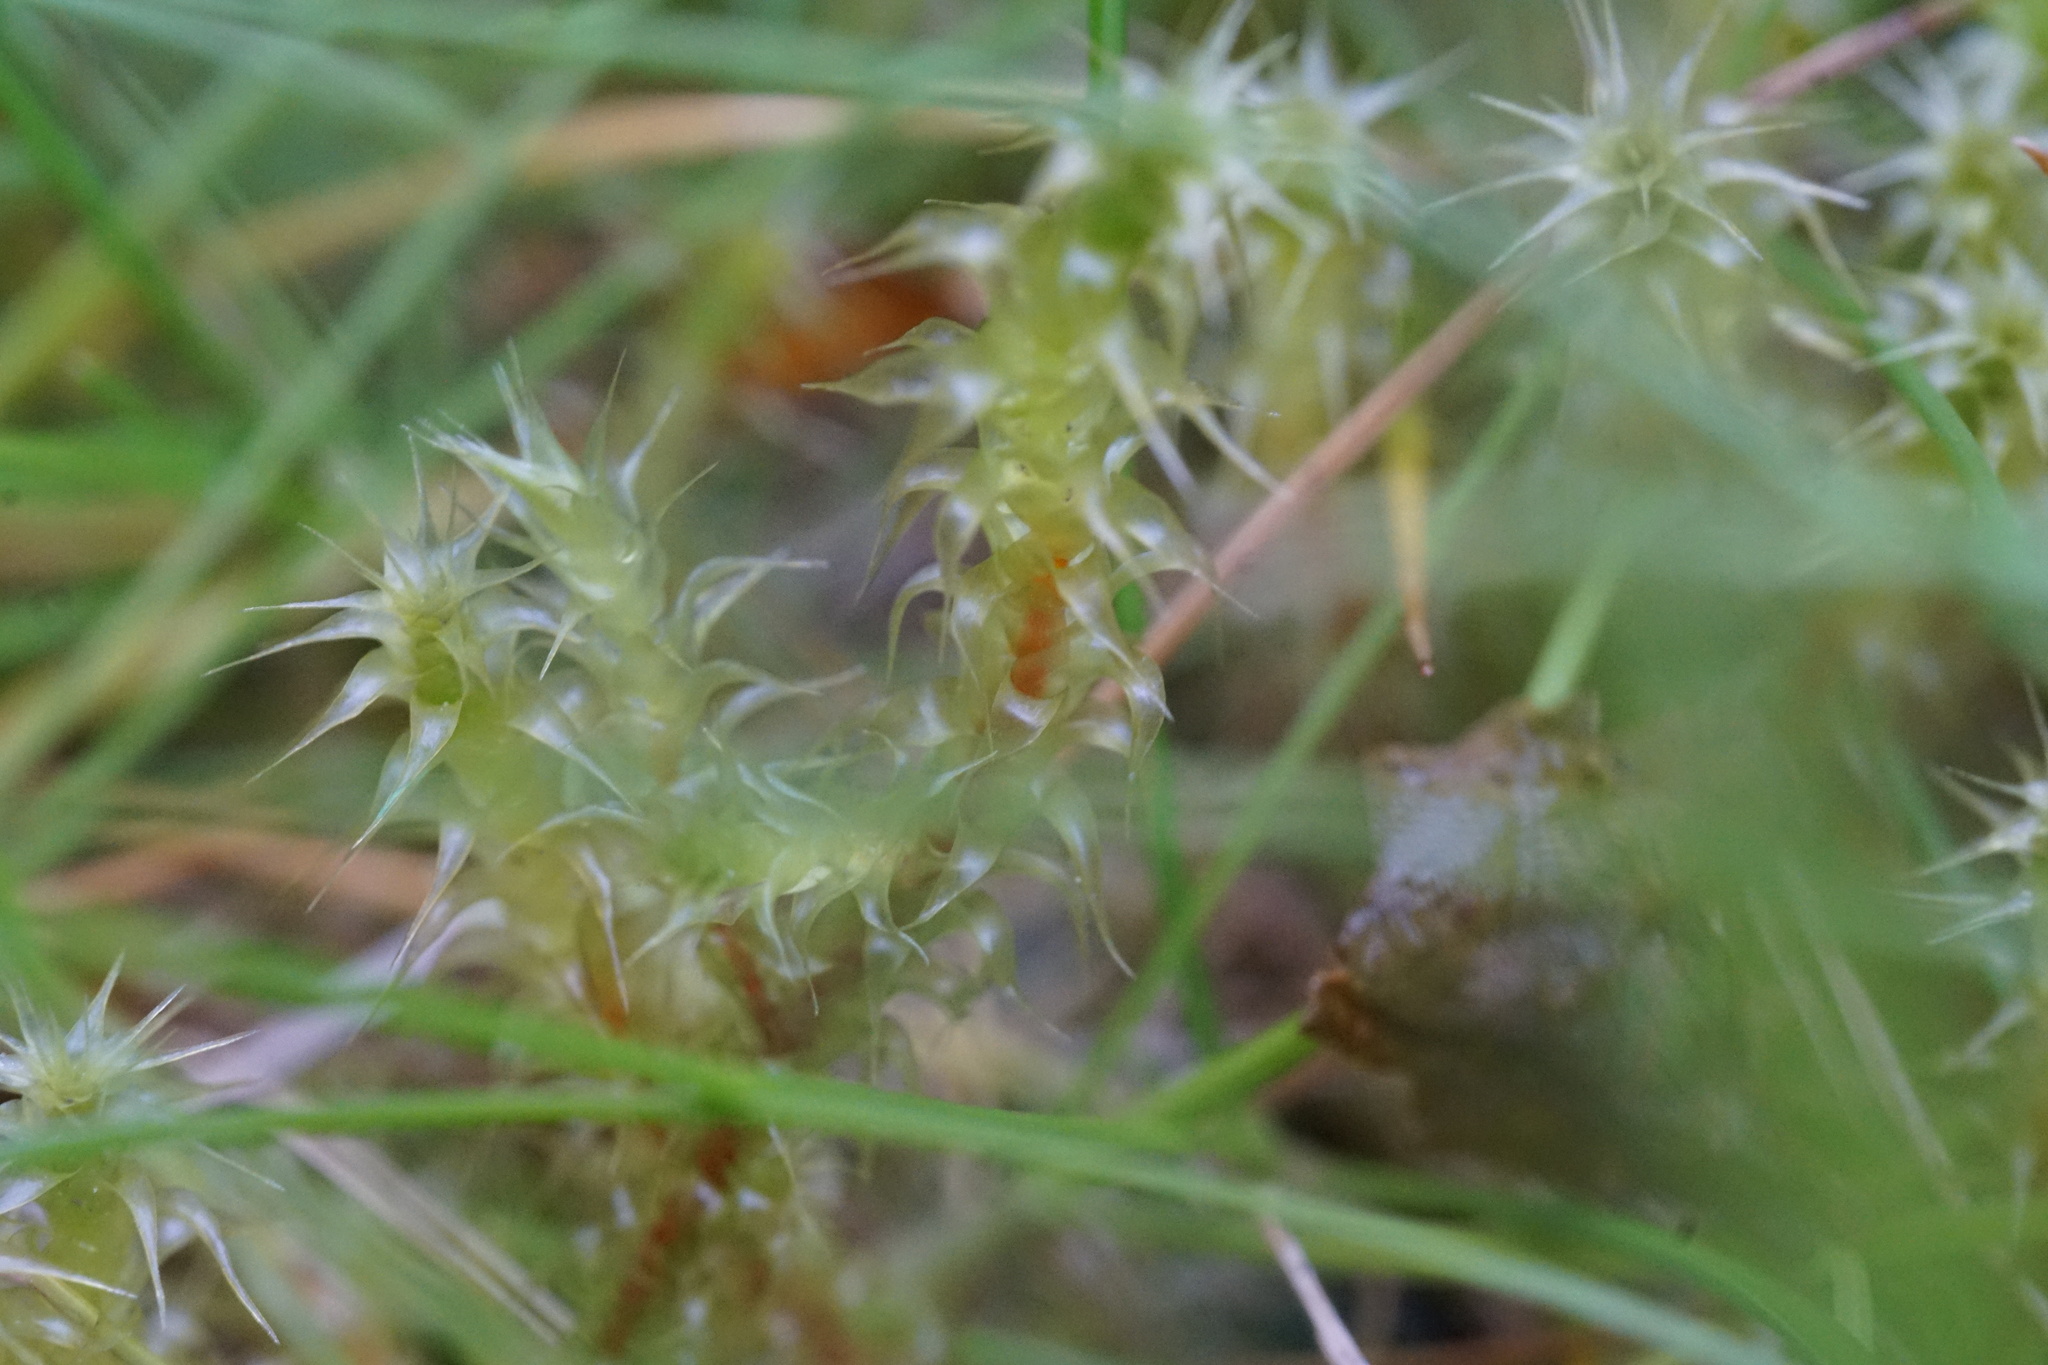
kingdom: Plantae
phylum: Bryophyta
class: Bryopsida
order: Hypnales
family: Hylocomiaceae
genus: Rhytidiadelphus
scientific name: Rhytidiadelphus squarrosus
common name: Springy turf-moss
